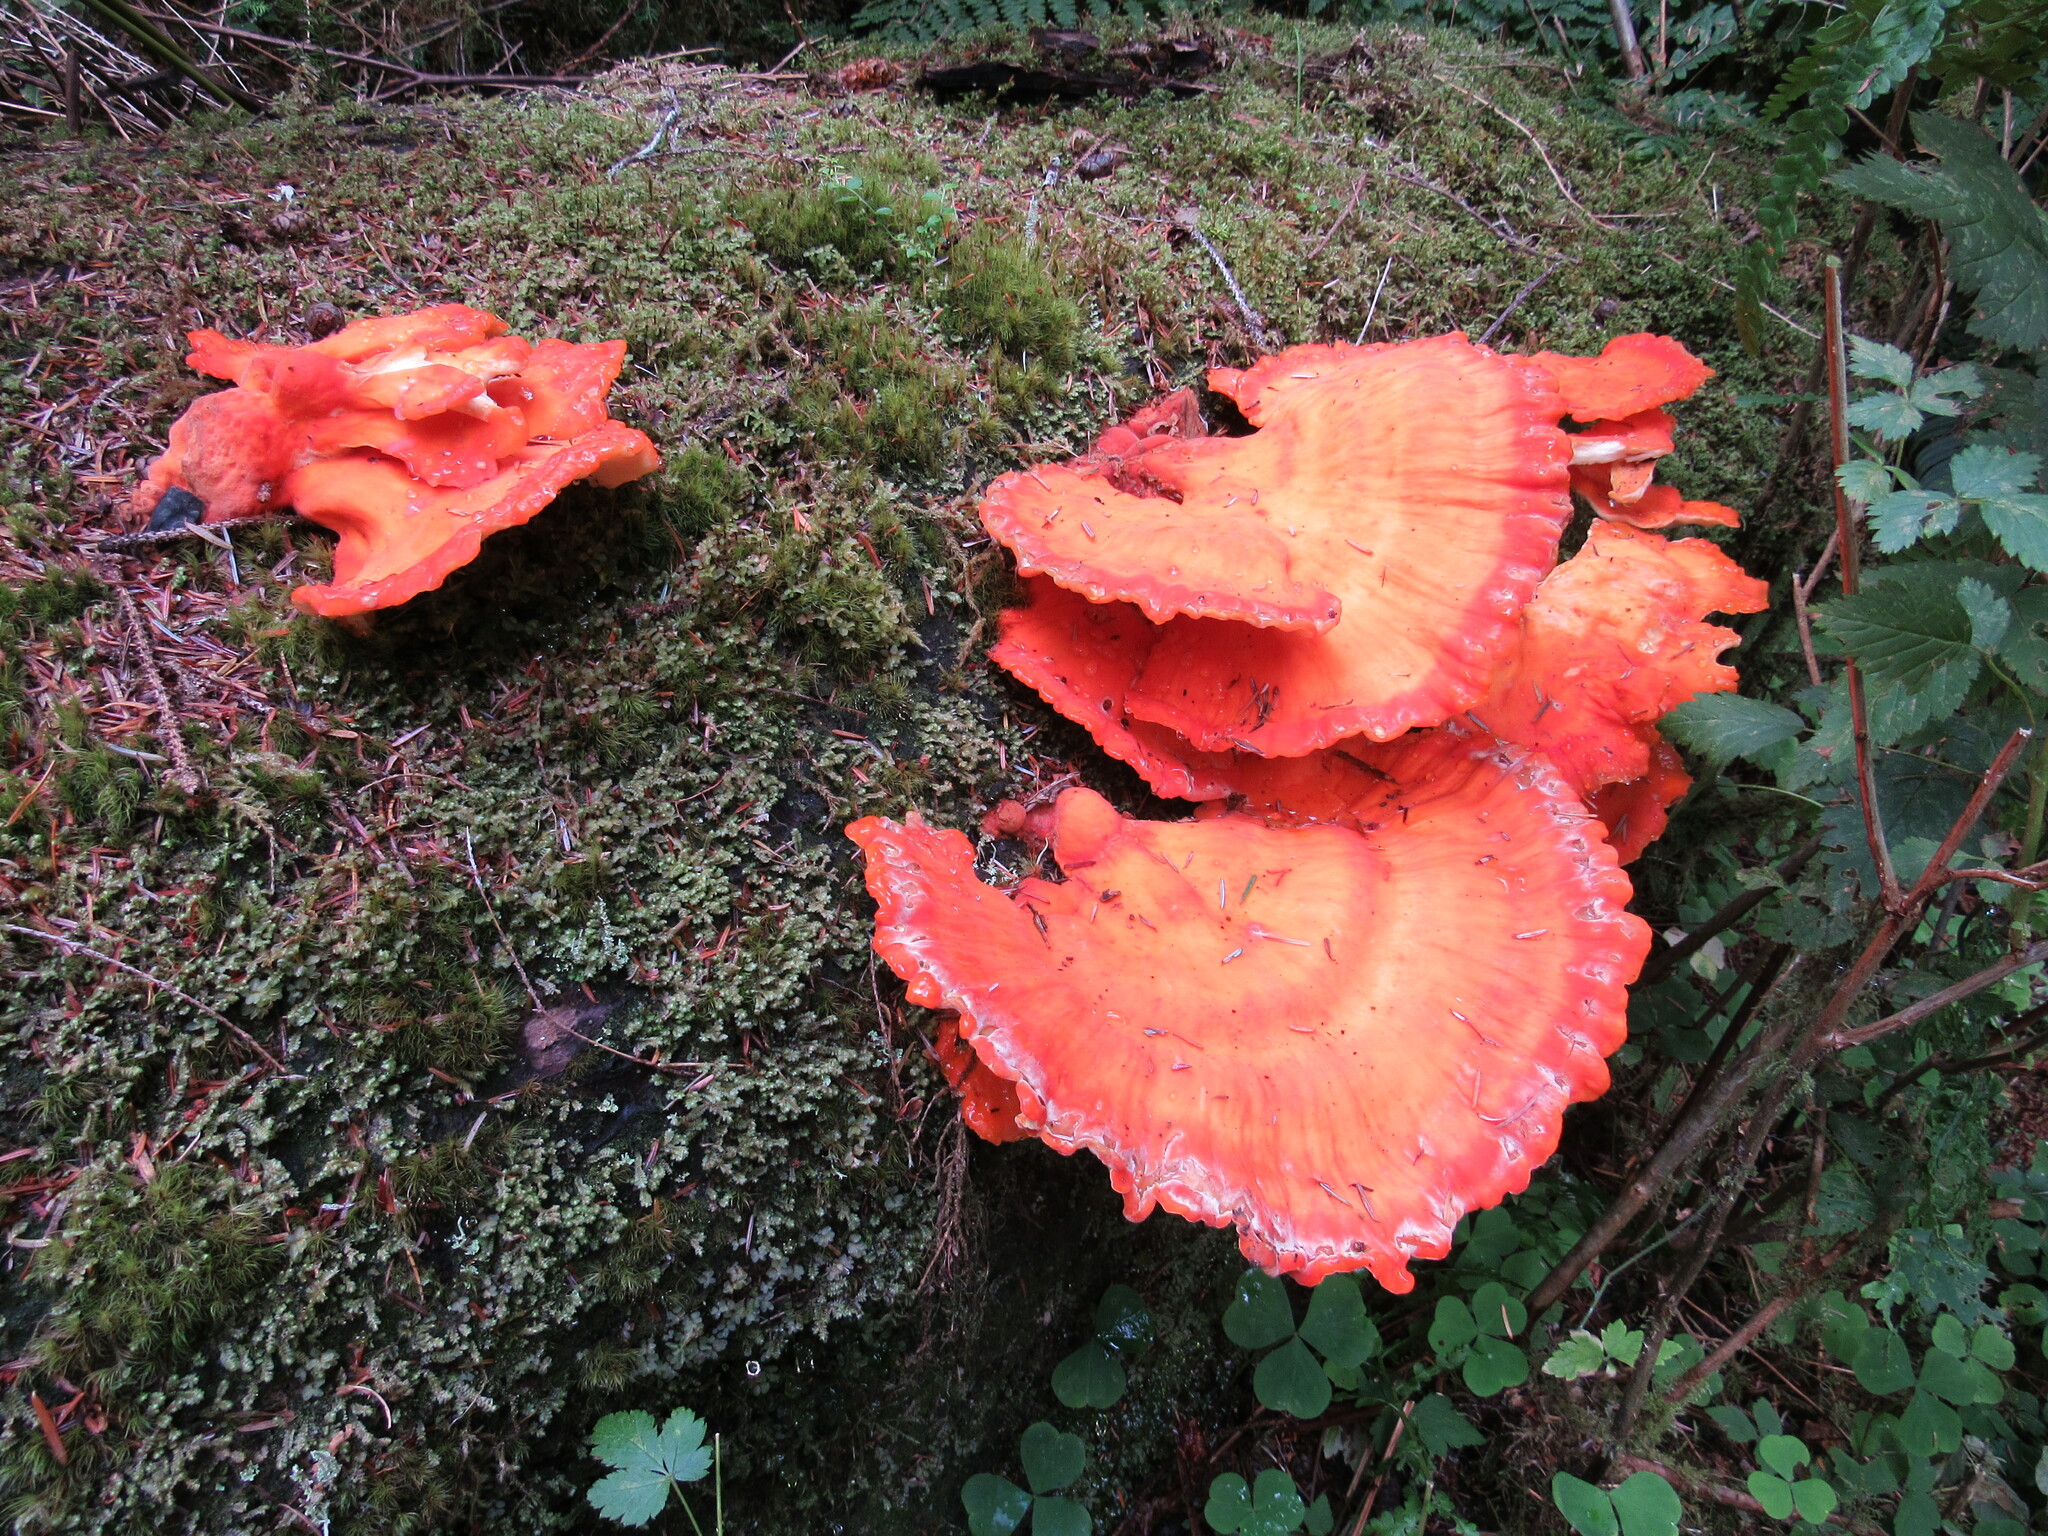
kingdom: Fungi
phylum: Basidiomycota
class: Agaricomycetes
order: Polyporales
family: Laetiporaceae
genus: Laetiporus
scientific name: Laetiporus conifericola
